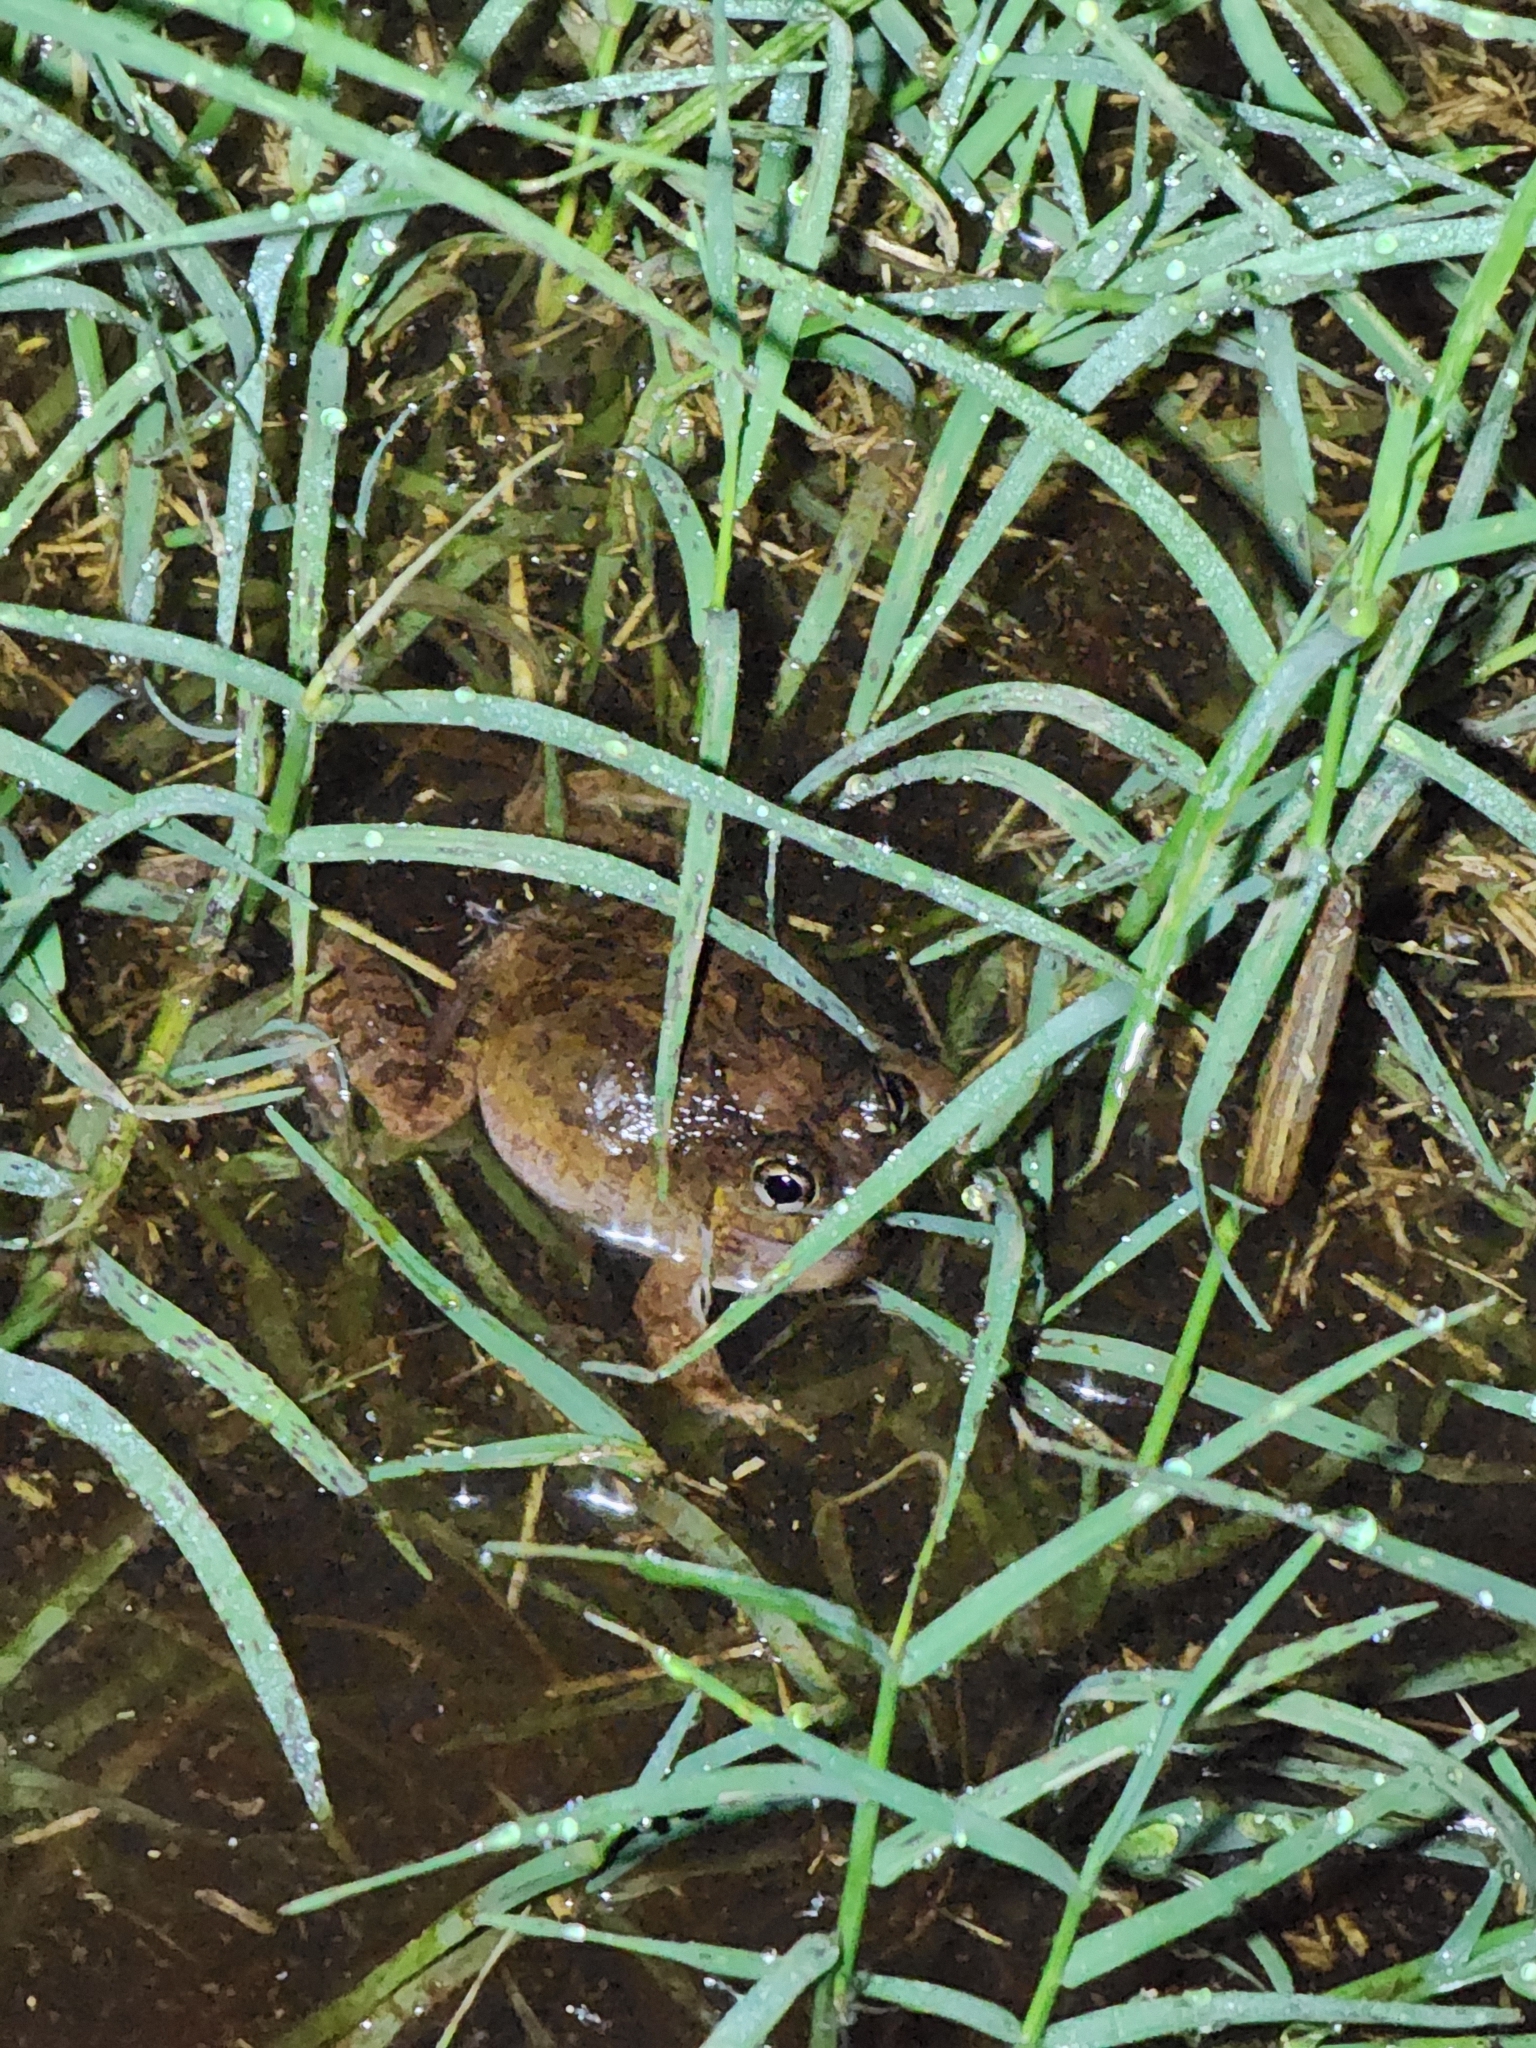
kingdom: Animalia
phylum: Chordata
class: Amphibia
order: Anura
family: Limnodynastidae
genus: Platyplectrum
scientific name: Platyplectrum ornatum
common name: Ornate burrowing frog
